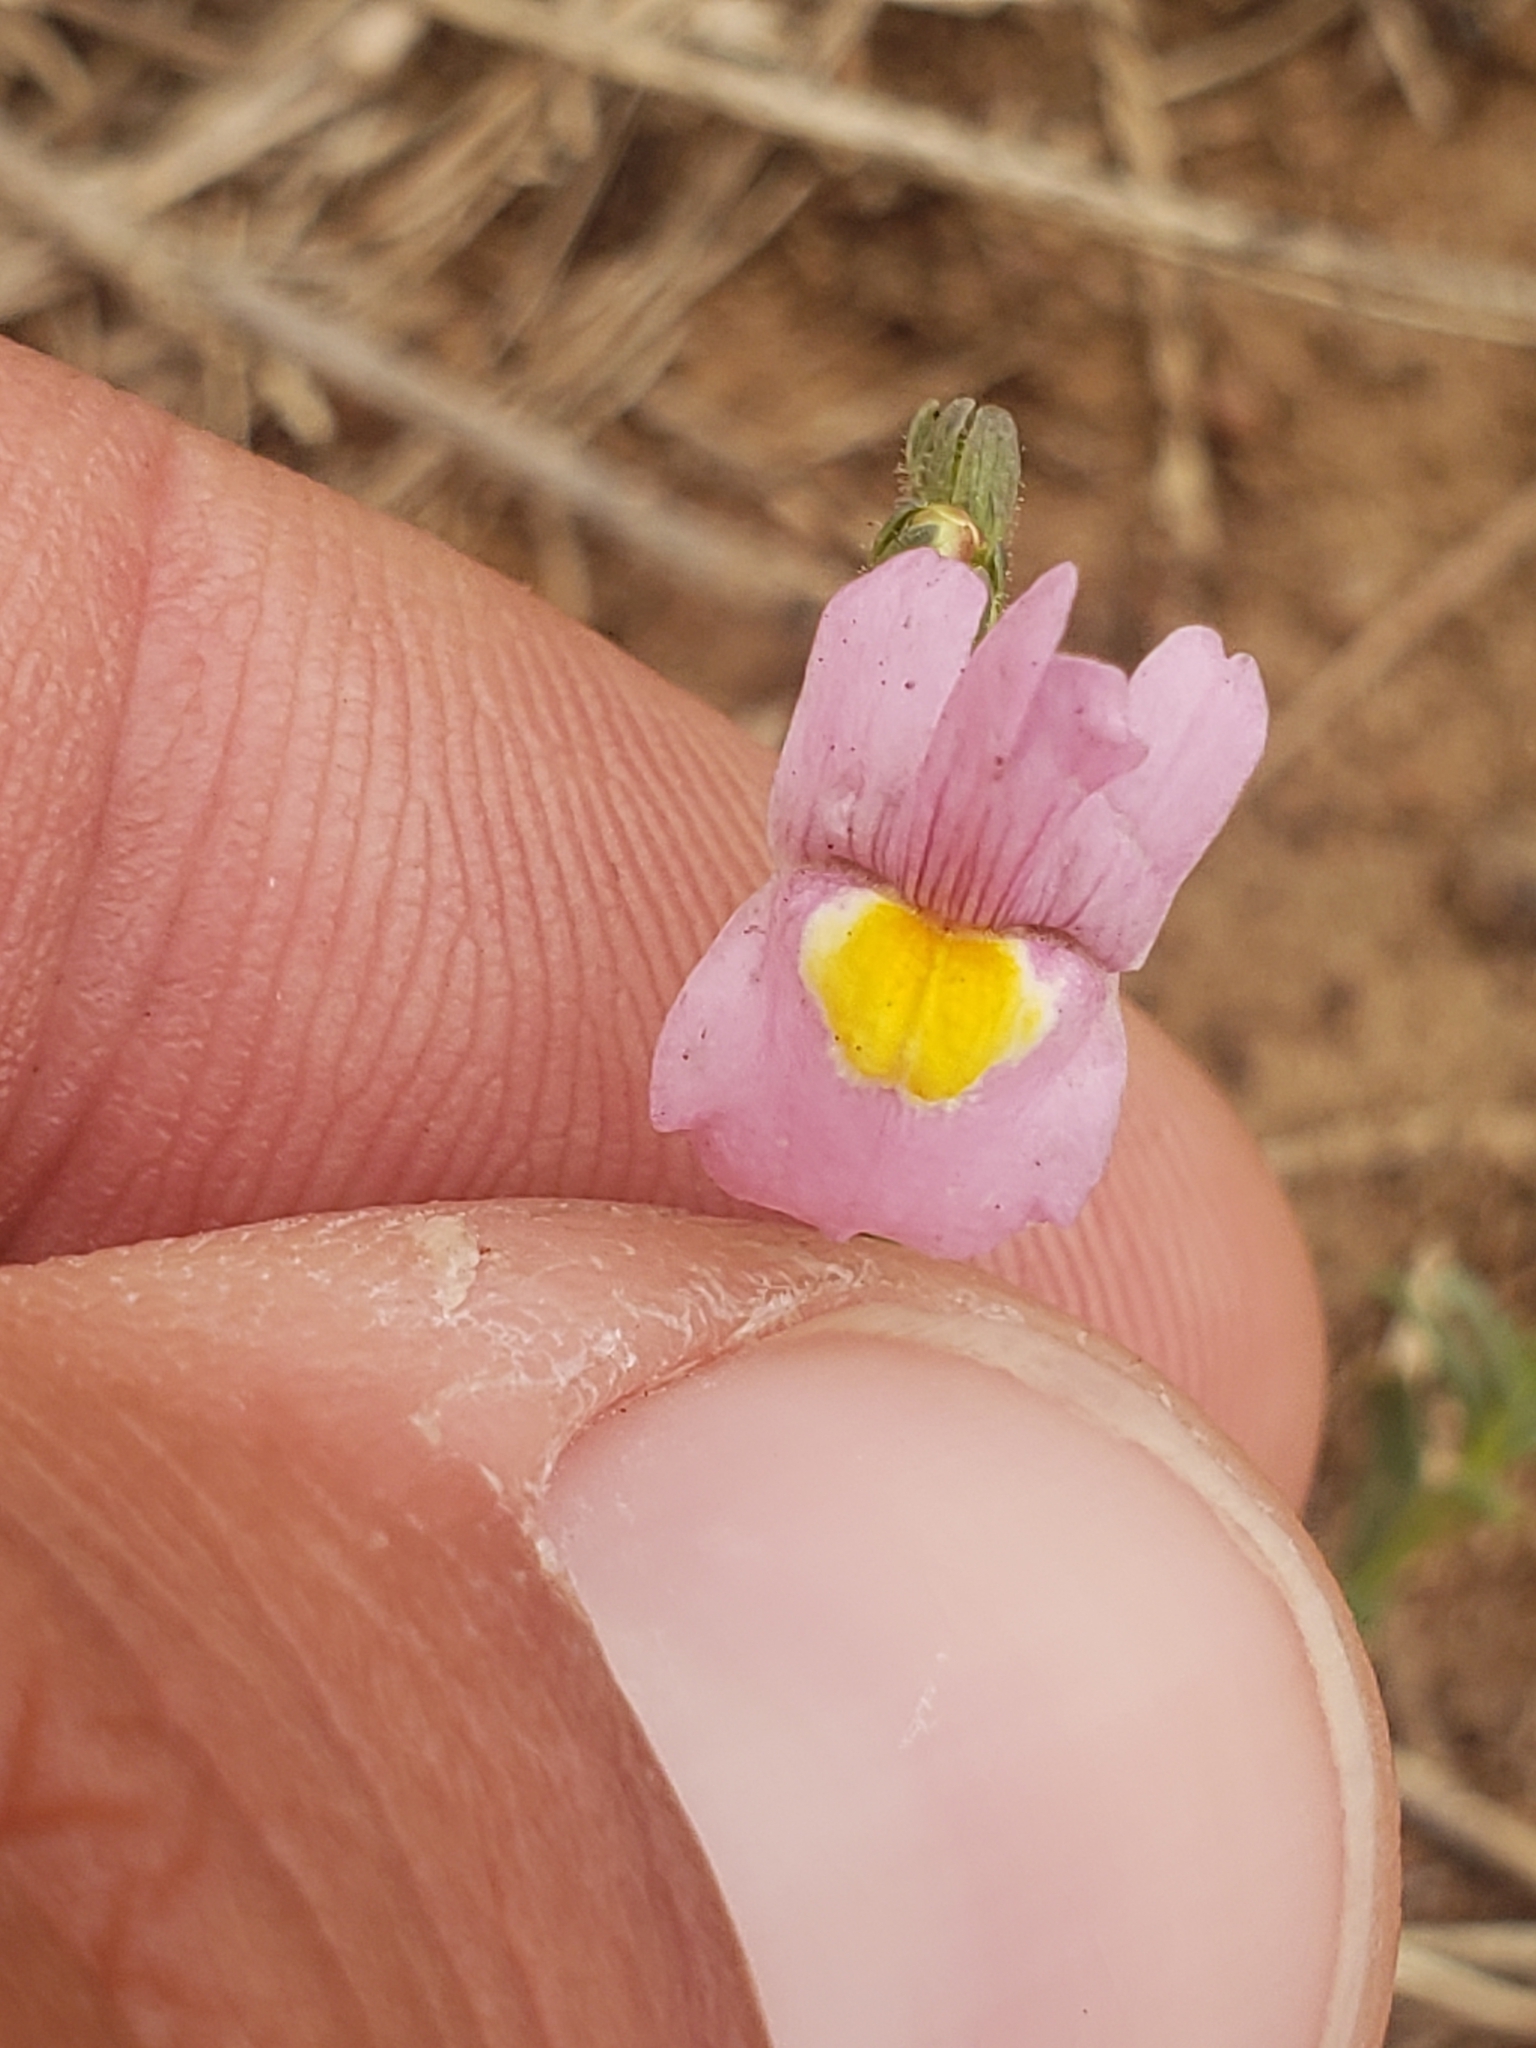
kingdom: Plantae
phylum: Tracheophyta
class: Magnoliopsida
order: Lamiales
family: Scrophulariaceae
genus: Nemesia
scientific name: Nemesia fruticans
